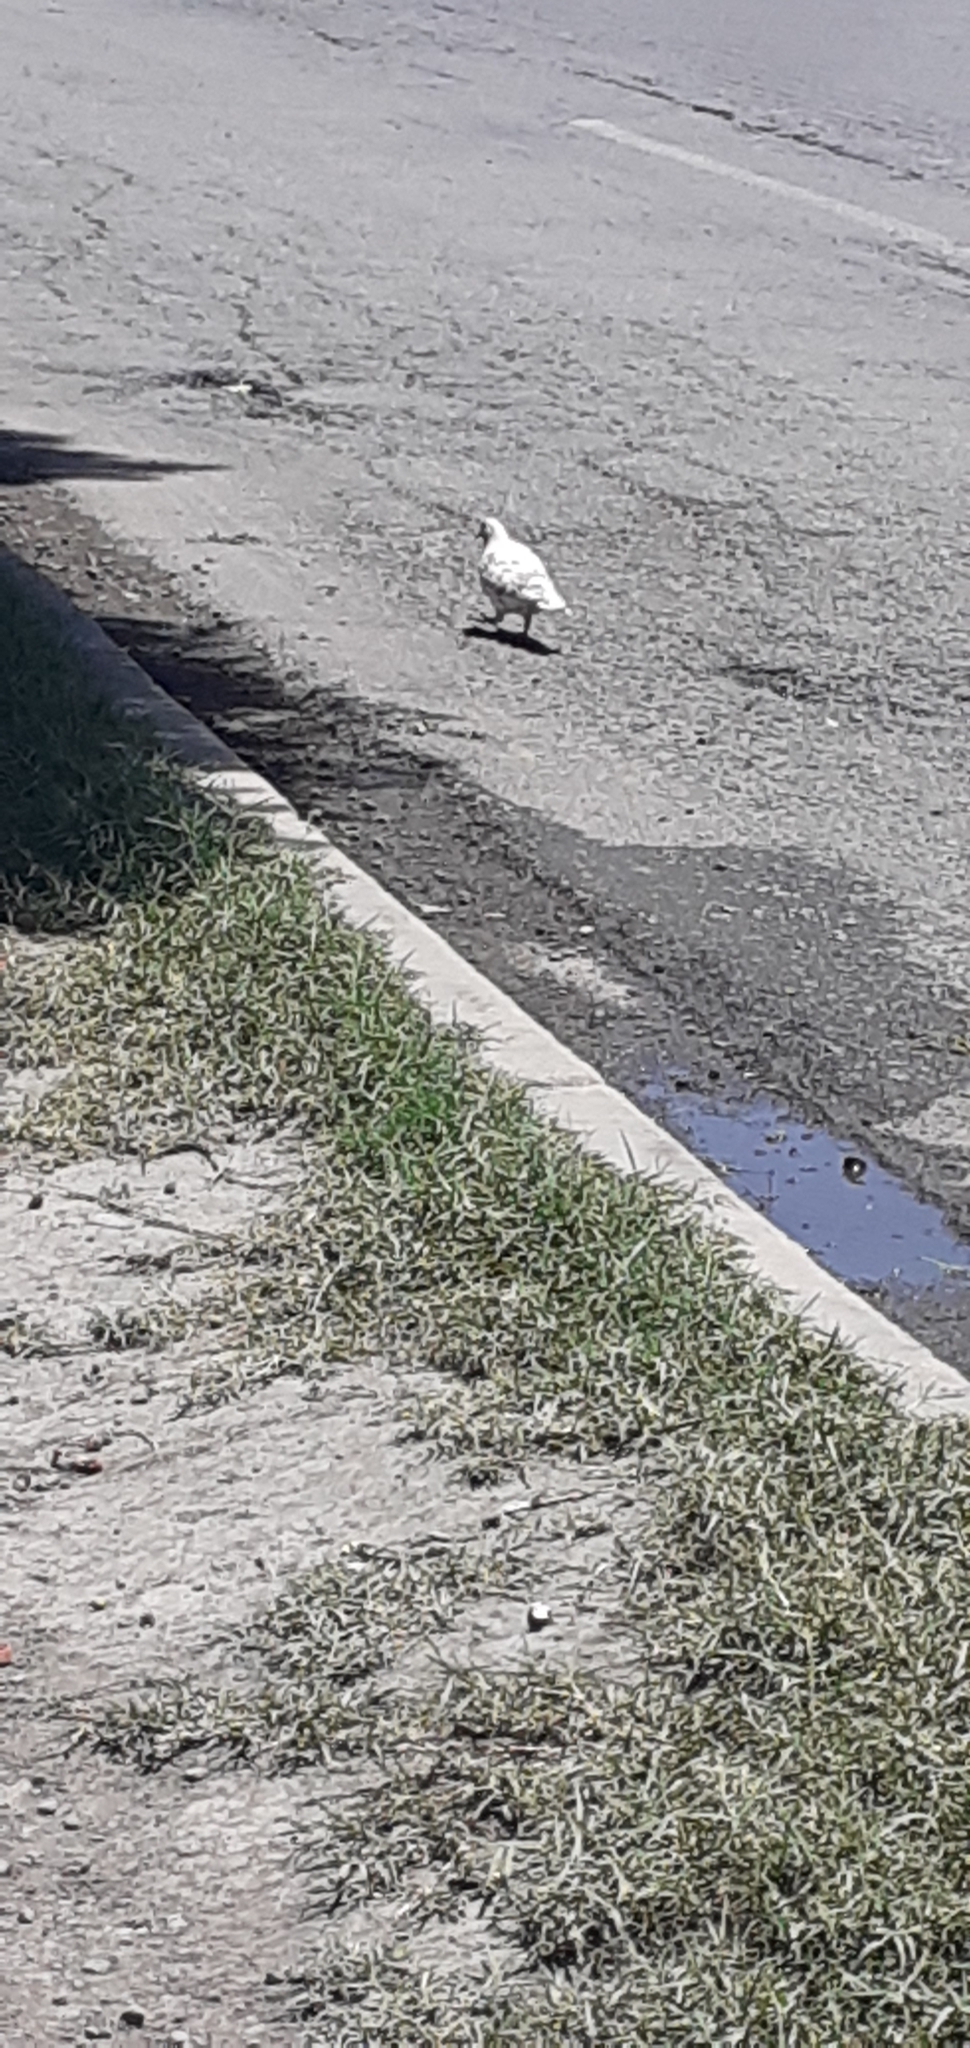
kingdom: Animalia
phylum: Chordata
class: Aves
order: Columbiformes
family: Columbidae
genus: Columba
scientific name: Columba livia
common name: Rock pigeon
